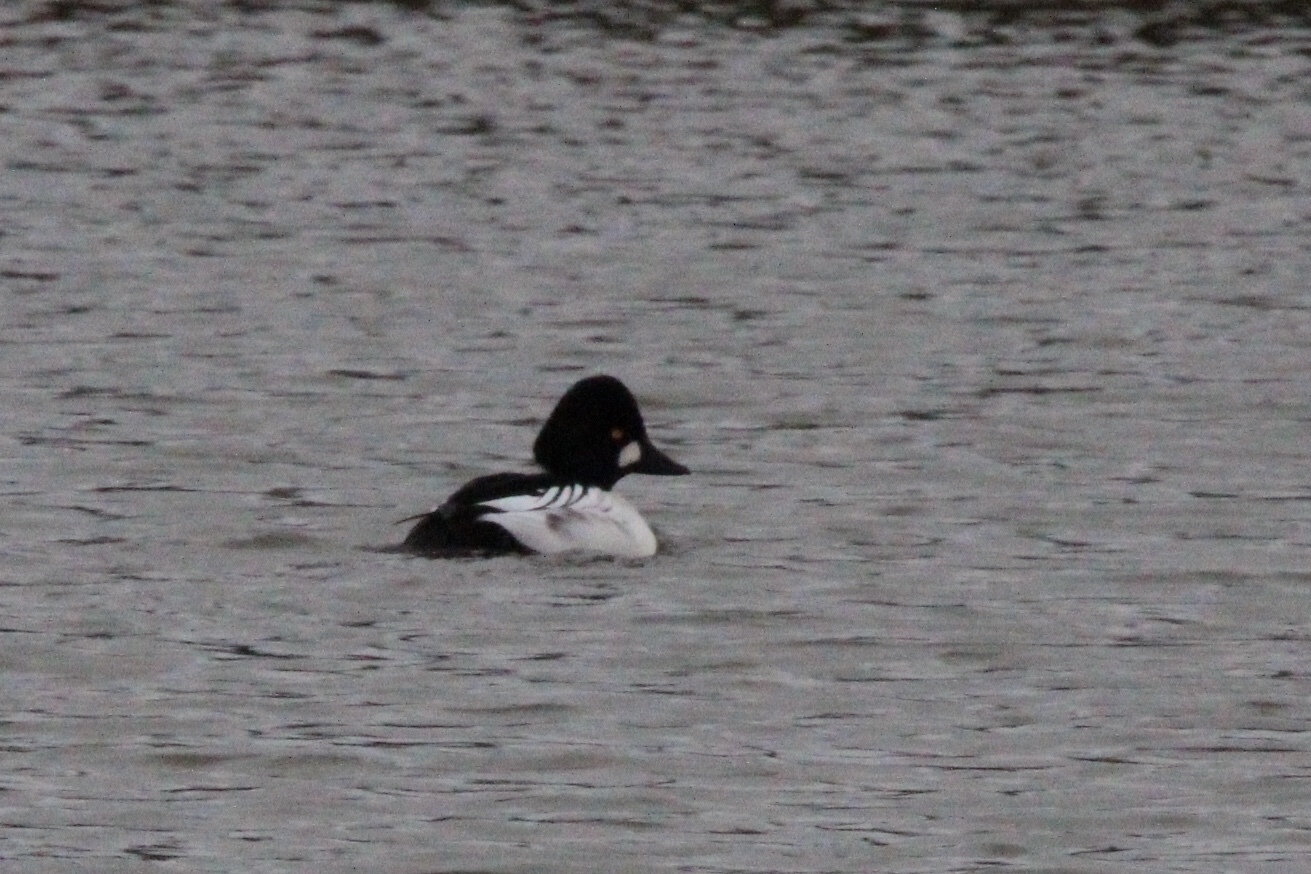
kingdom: Animalia
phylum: Chordata
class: Aves
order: Anseriformes
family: Anatidae
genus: Bucephala
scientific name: Bucephala clangula
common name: Common goldeneye
